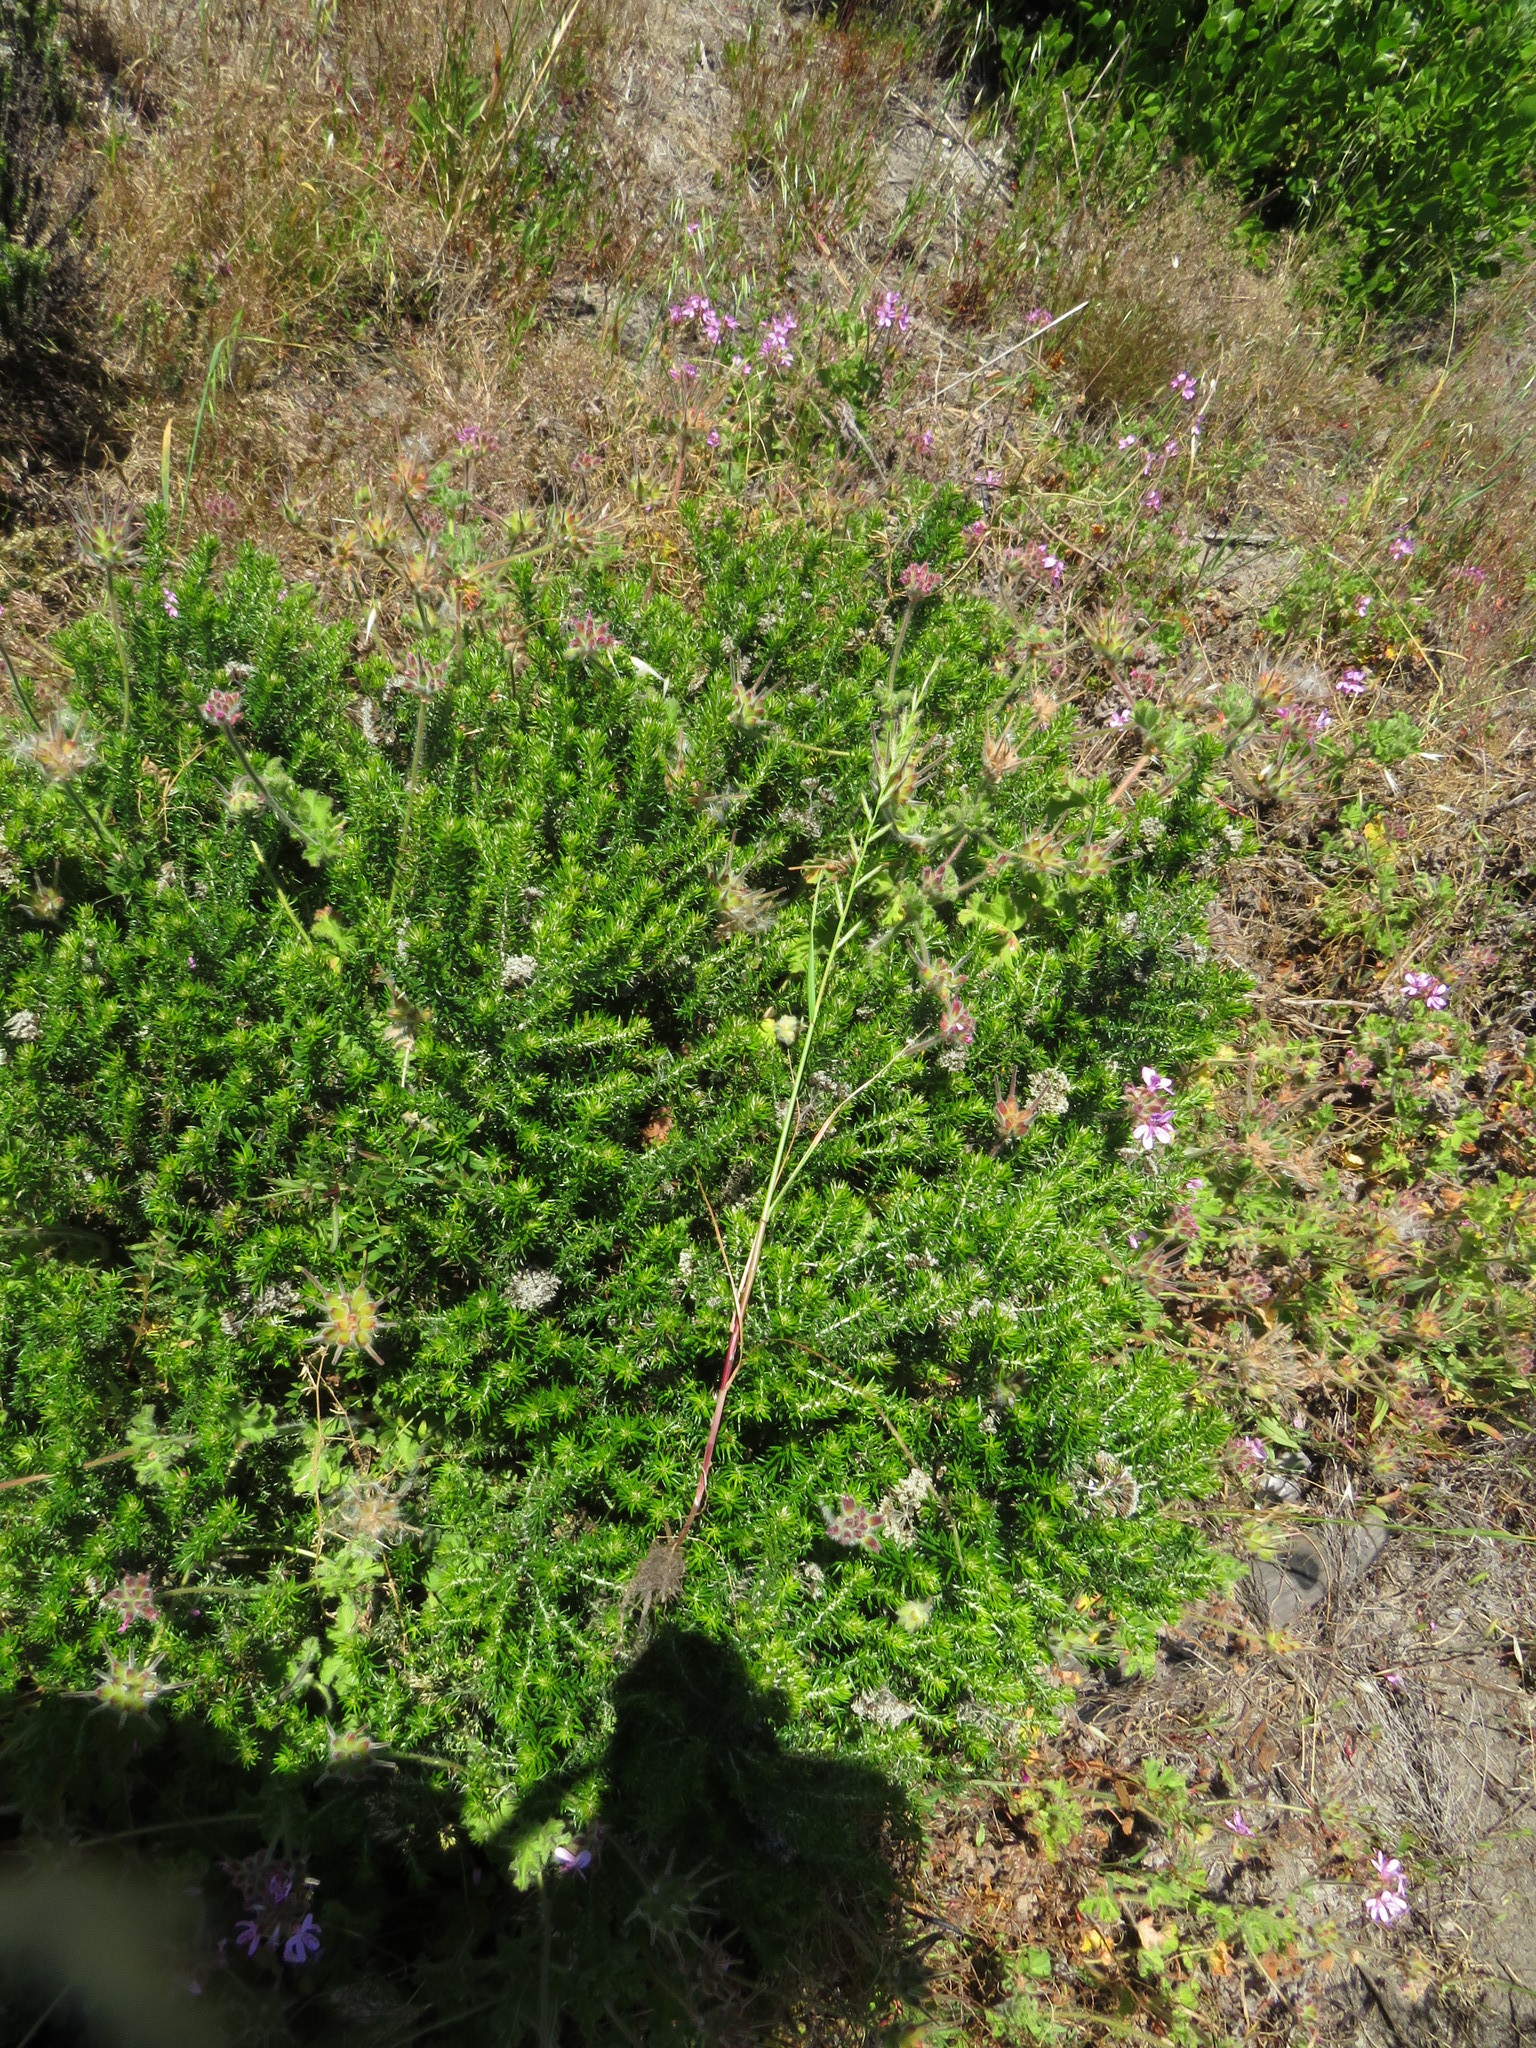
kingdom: Plantae
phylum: Tracheophyta
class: Liliopsida
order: Poales
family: Poaceae
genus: Lolium
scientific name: Lolium perenne
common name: Perennial ryegrass
